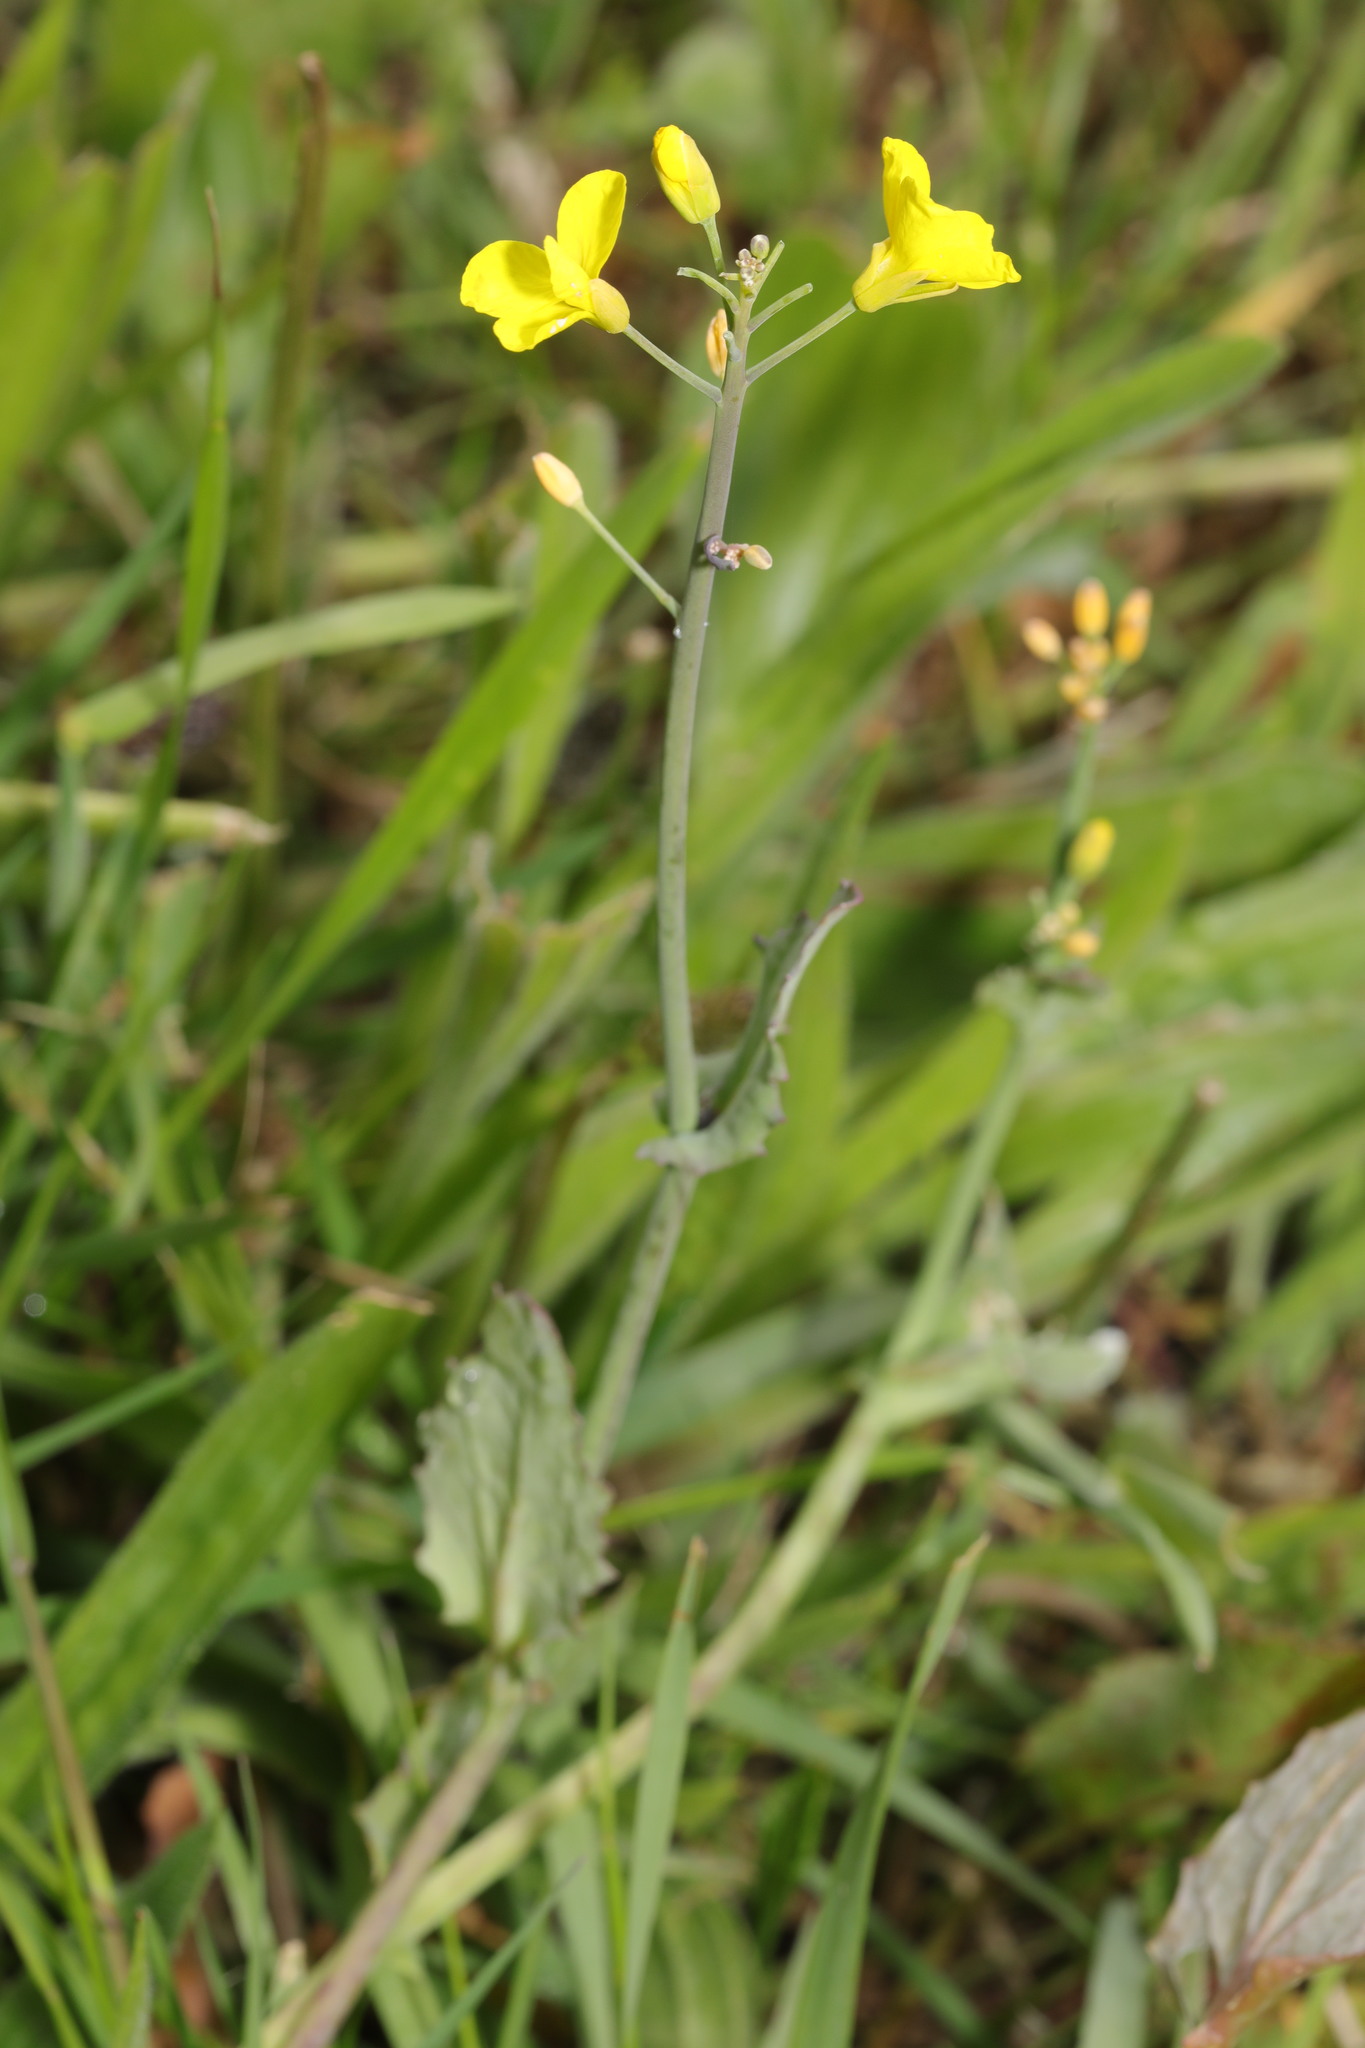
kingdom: Plantae
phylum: Tracheophyta
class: Magnoliopsida
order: Brassicales
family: Brassicaceae
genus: Brassica
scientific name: Brassica napus
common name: Rape
